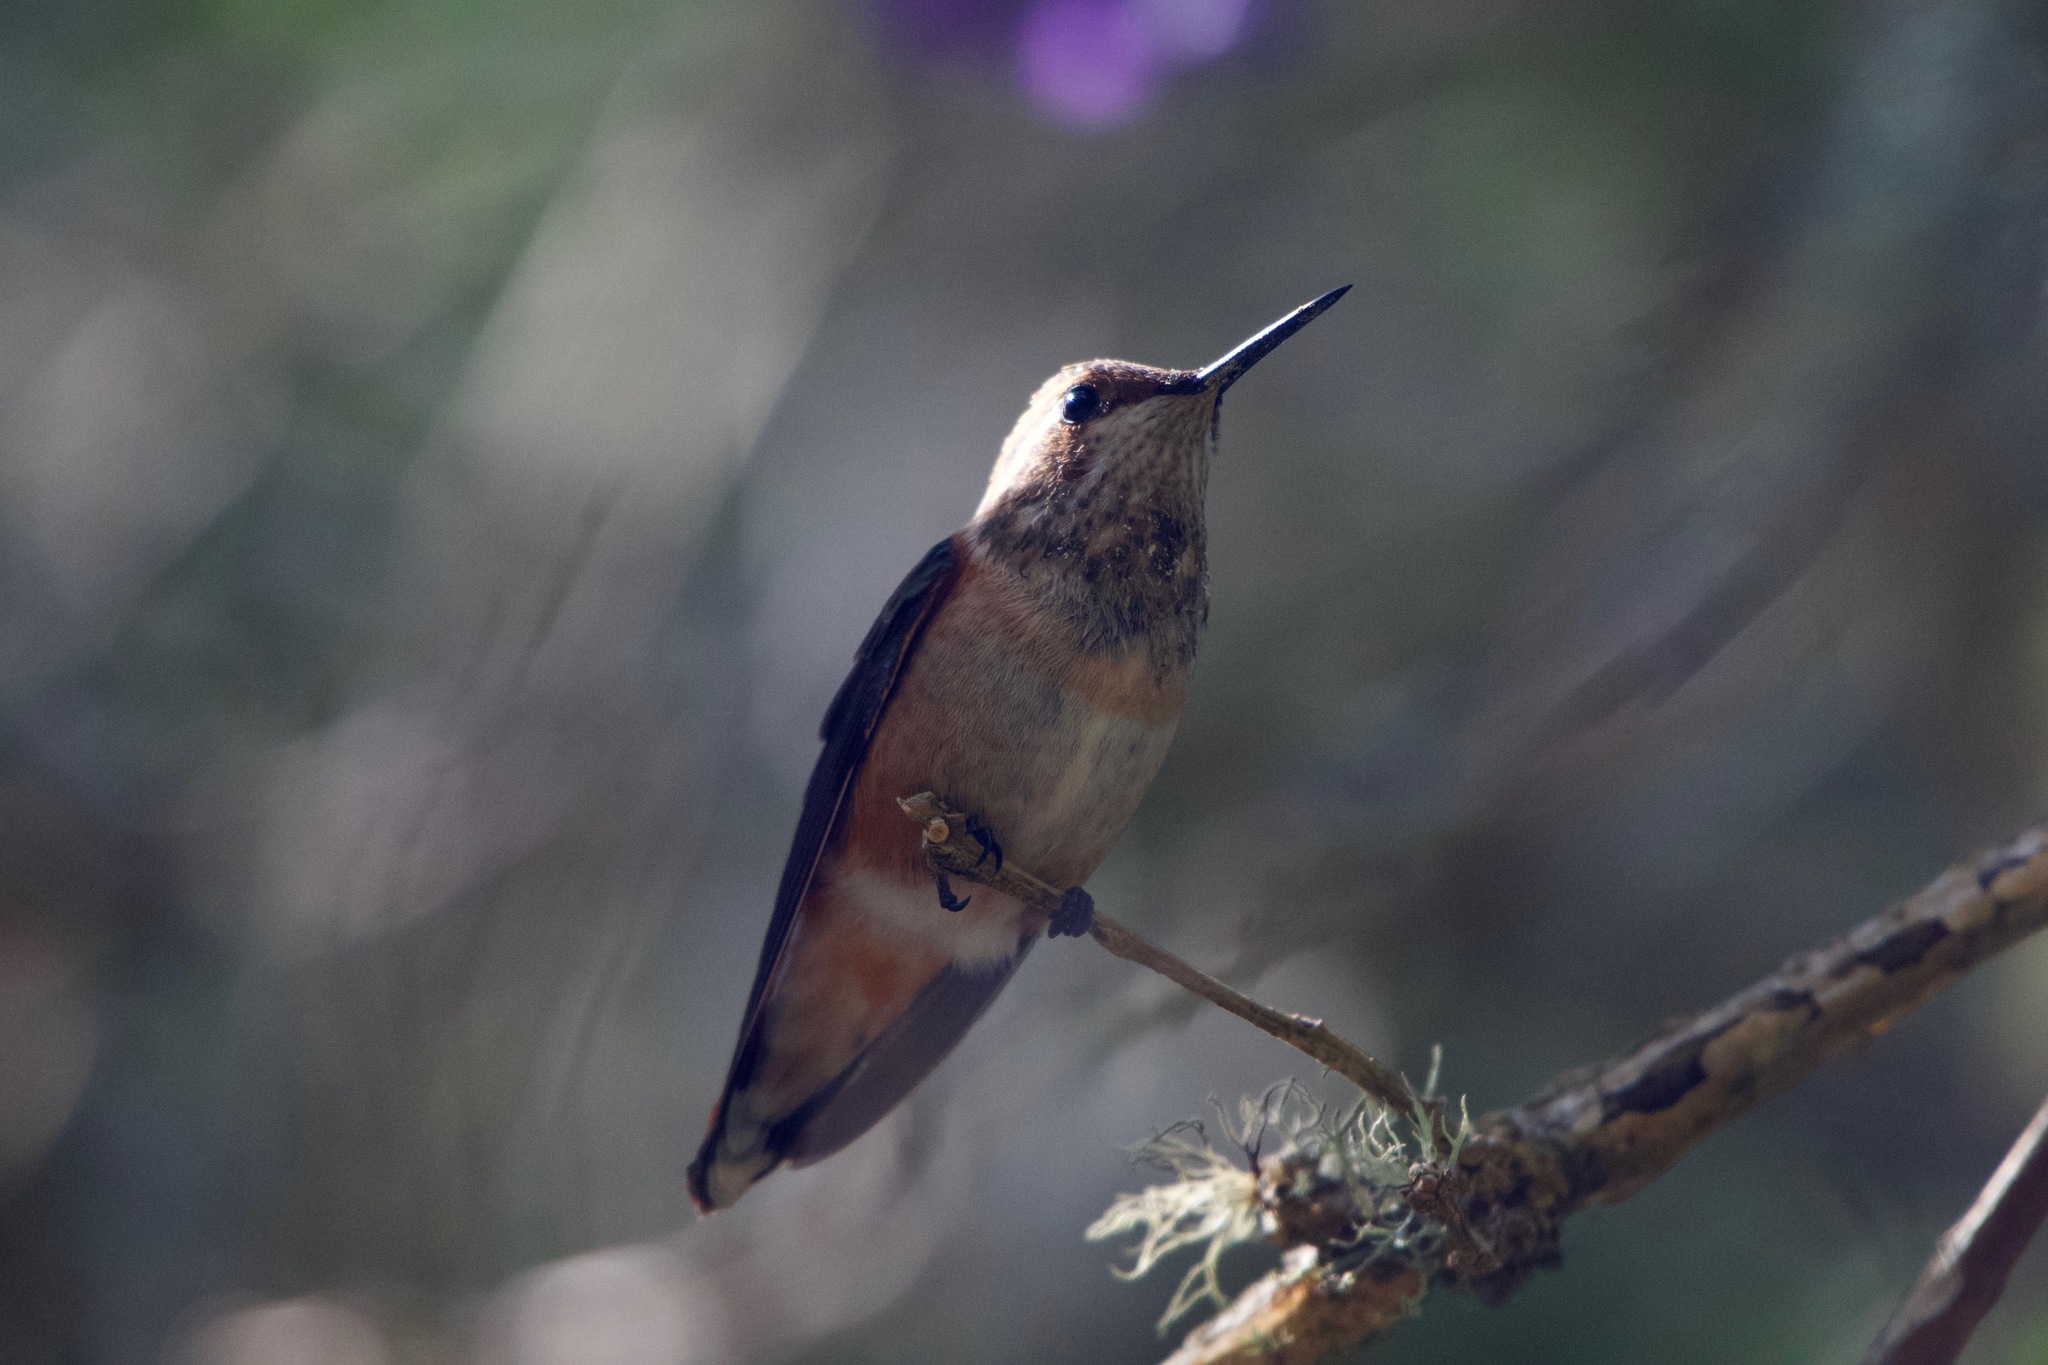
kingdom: Animalia
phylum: Chordata
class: Aves
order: Apodiformes
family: Trochilidae
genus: Selasphorus
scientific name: Selasphorus
